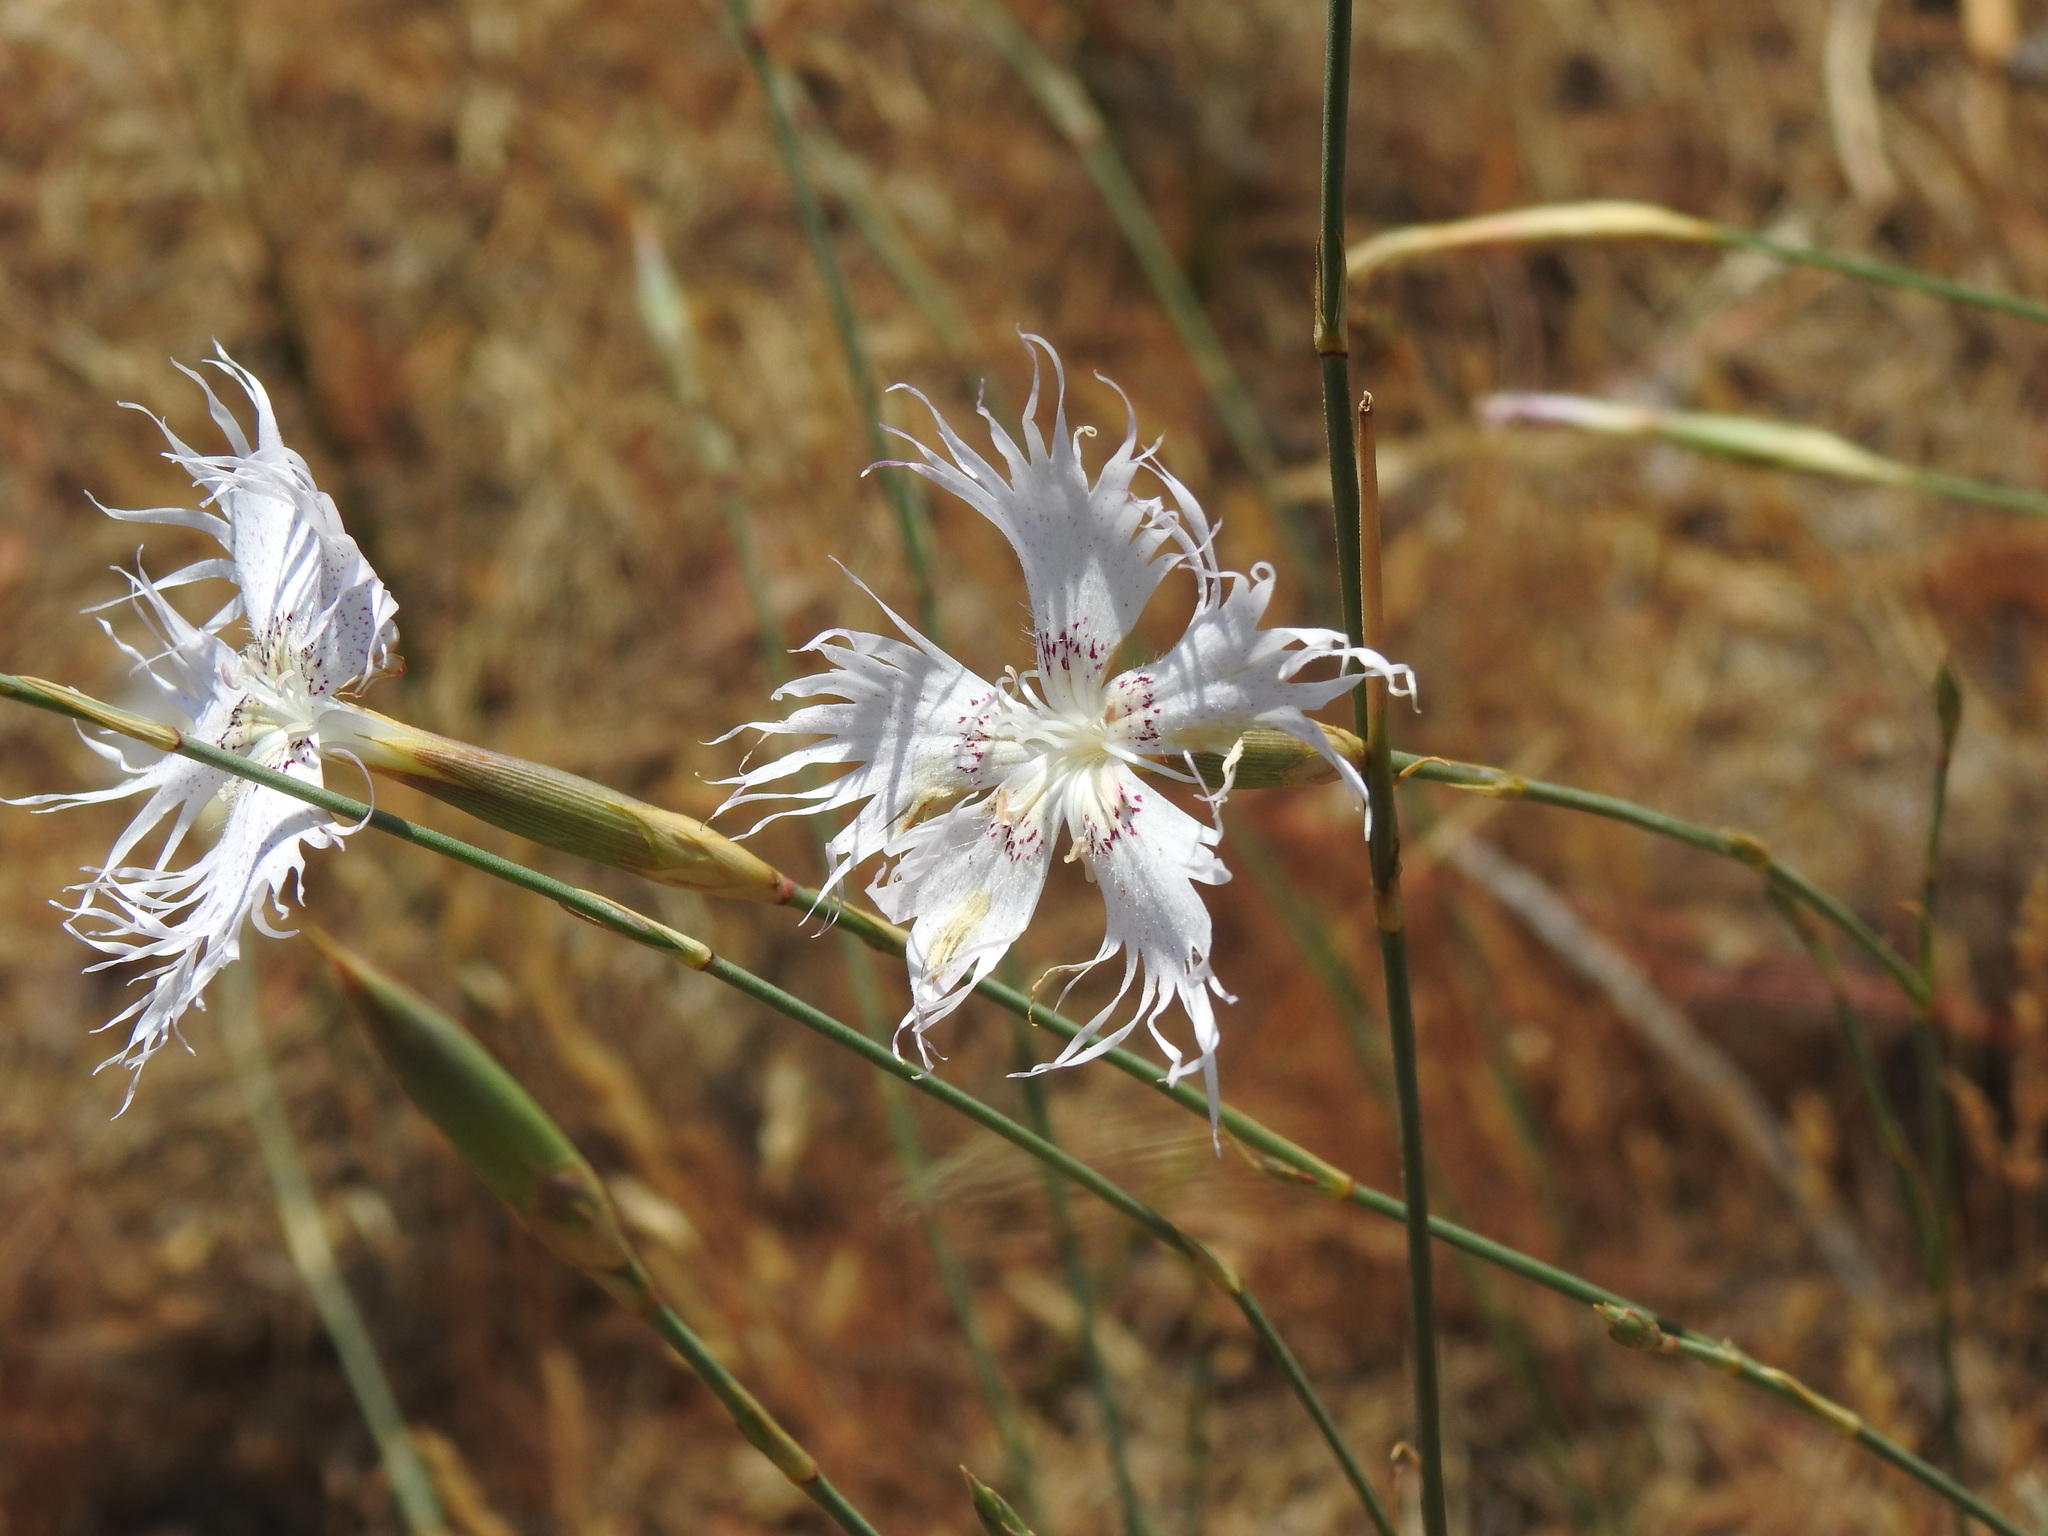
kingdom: Plantae
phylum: Tracheophyta
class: Magnoliopsida
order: Caryophyllales
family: Caryophyllaceae
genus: Dianthus
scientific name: Dianthus broteri
